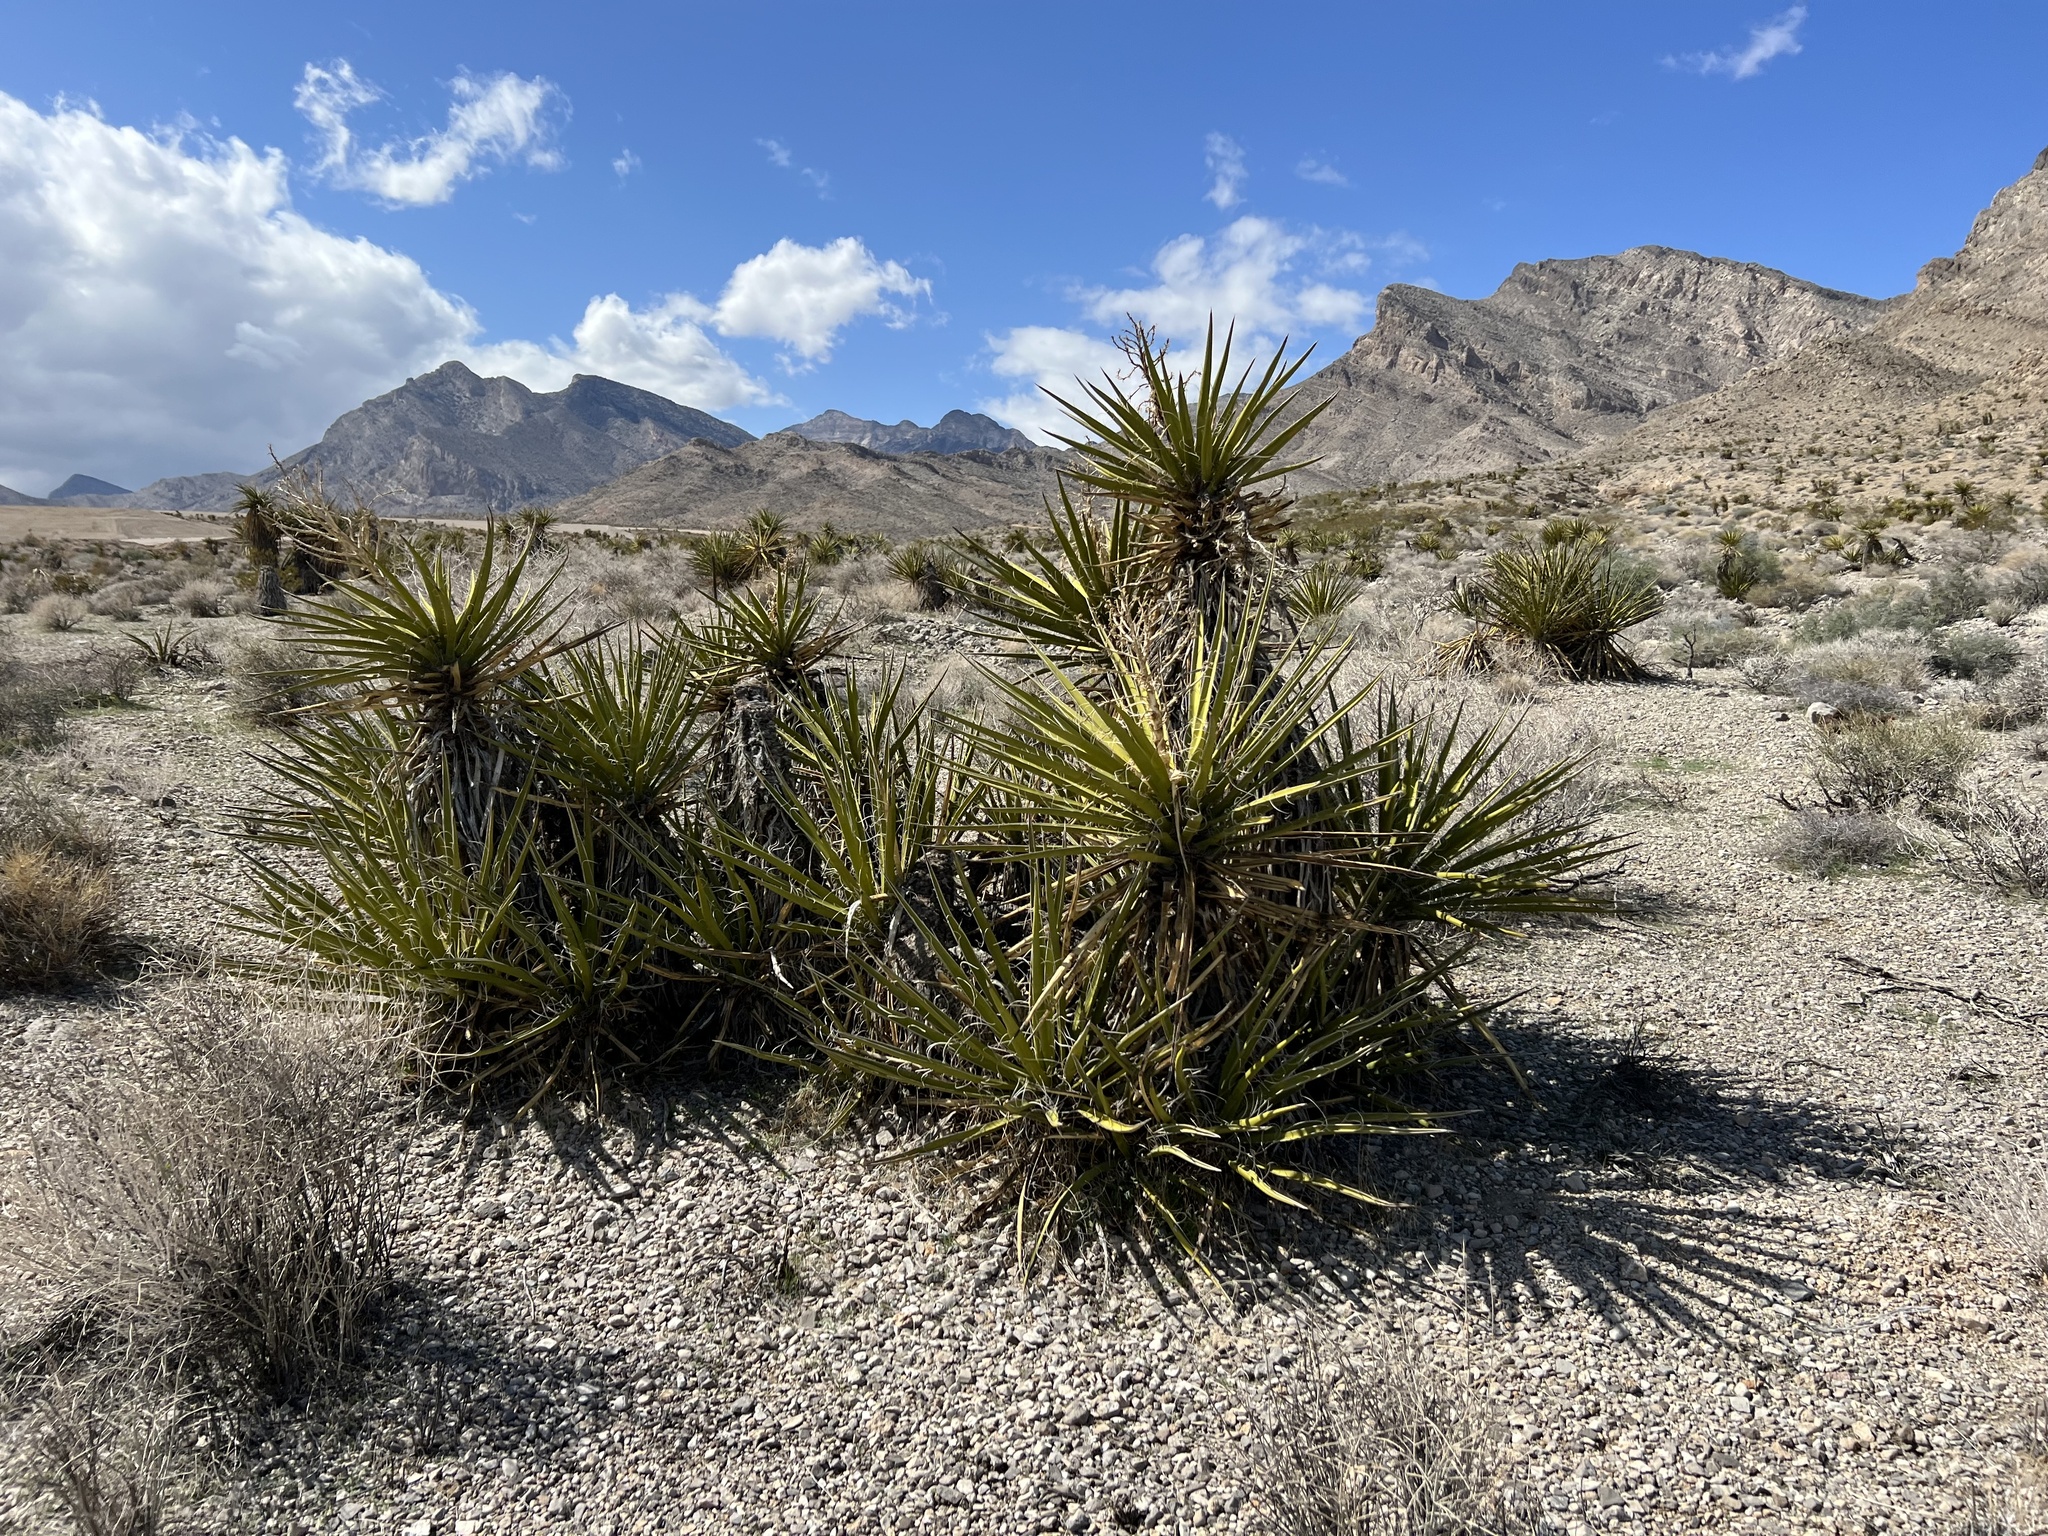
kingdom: Plantae
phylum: Tracheophyta
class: Liliopsida
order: Asparagales
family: Asparagaceae
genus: Yucca
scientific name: Yucca schidigera
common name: Mojave yucca
